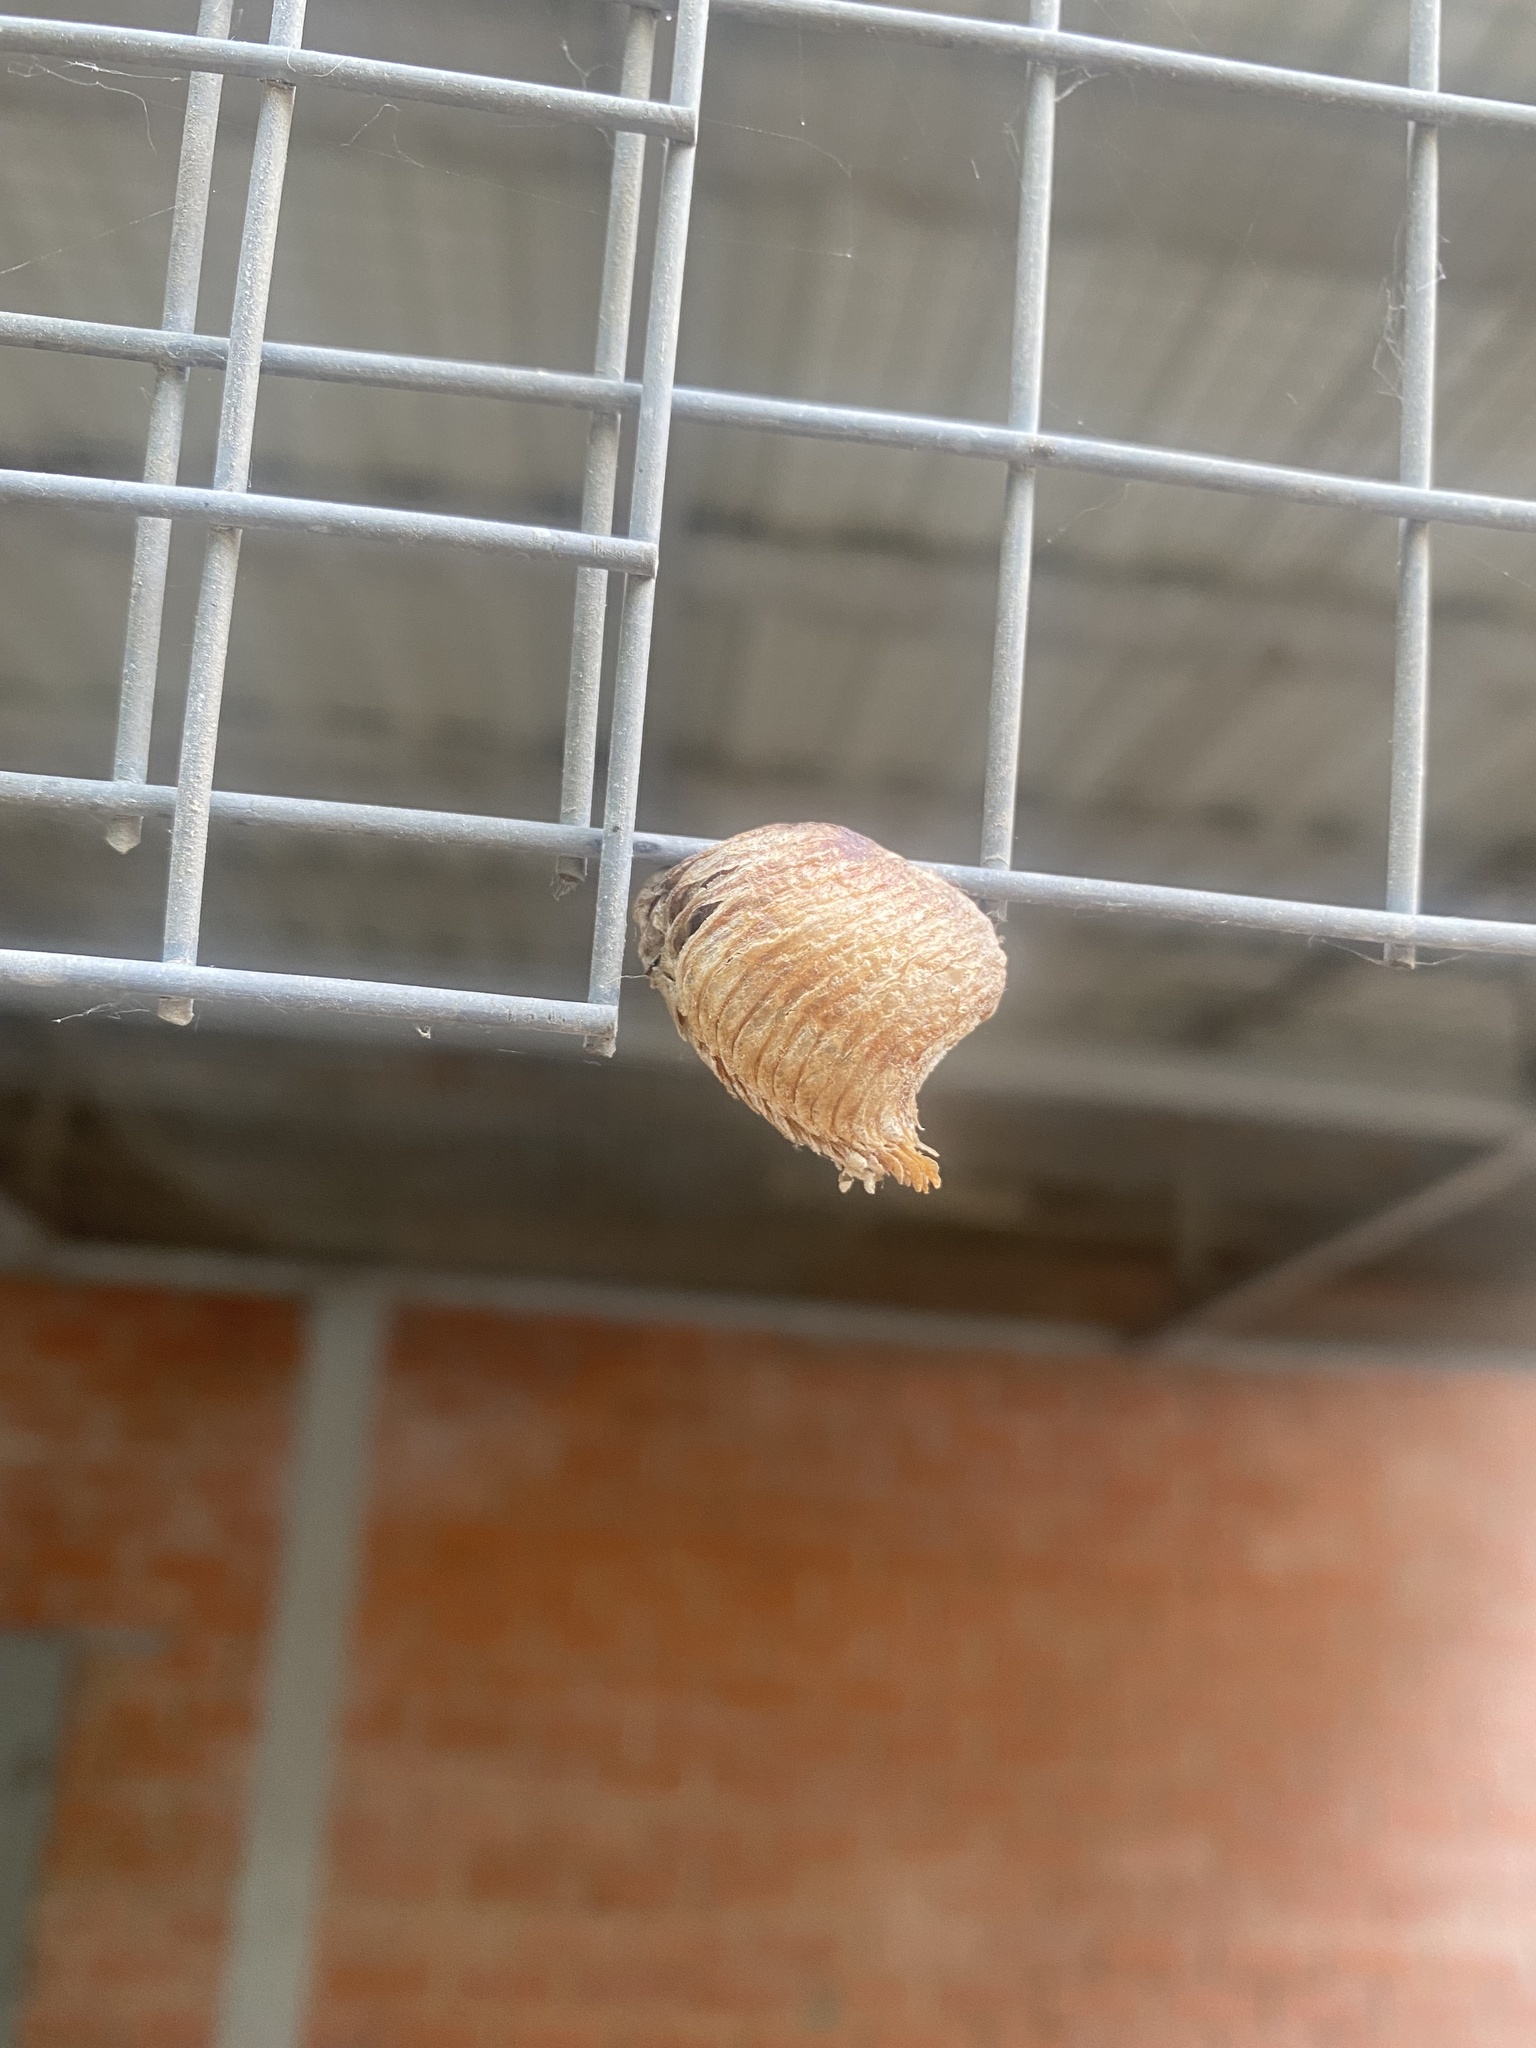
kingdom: Animalia
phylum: Arthropoda
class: Insecta
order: Mantodea
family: Mantidae
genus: Hierodula
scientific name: Hierodula transcaucasica
